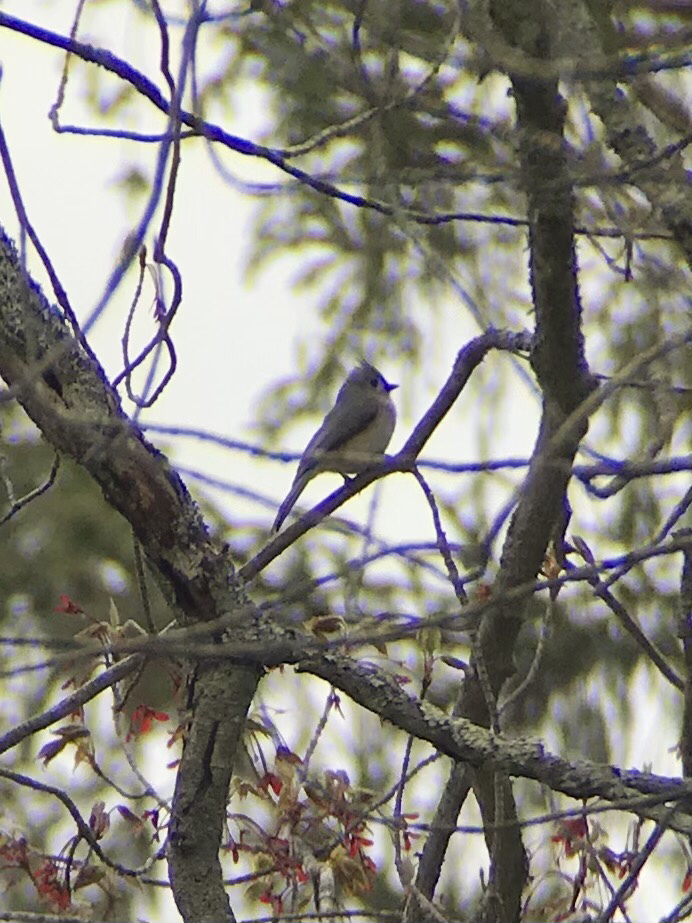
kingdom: Animalia
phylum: Chordata
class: Aves
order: Passeriformes
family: Paridae
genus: Baeolophus
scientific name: Baeolophus bicolor
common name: Tufted titmouse
